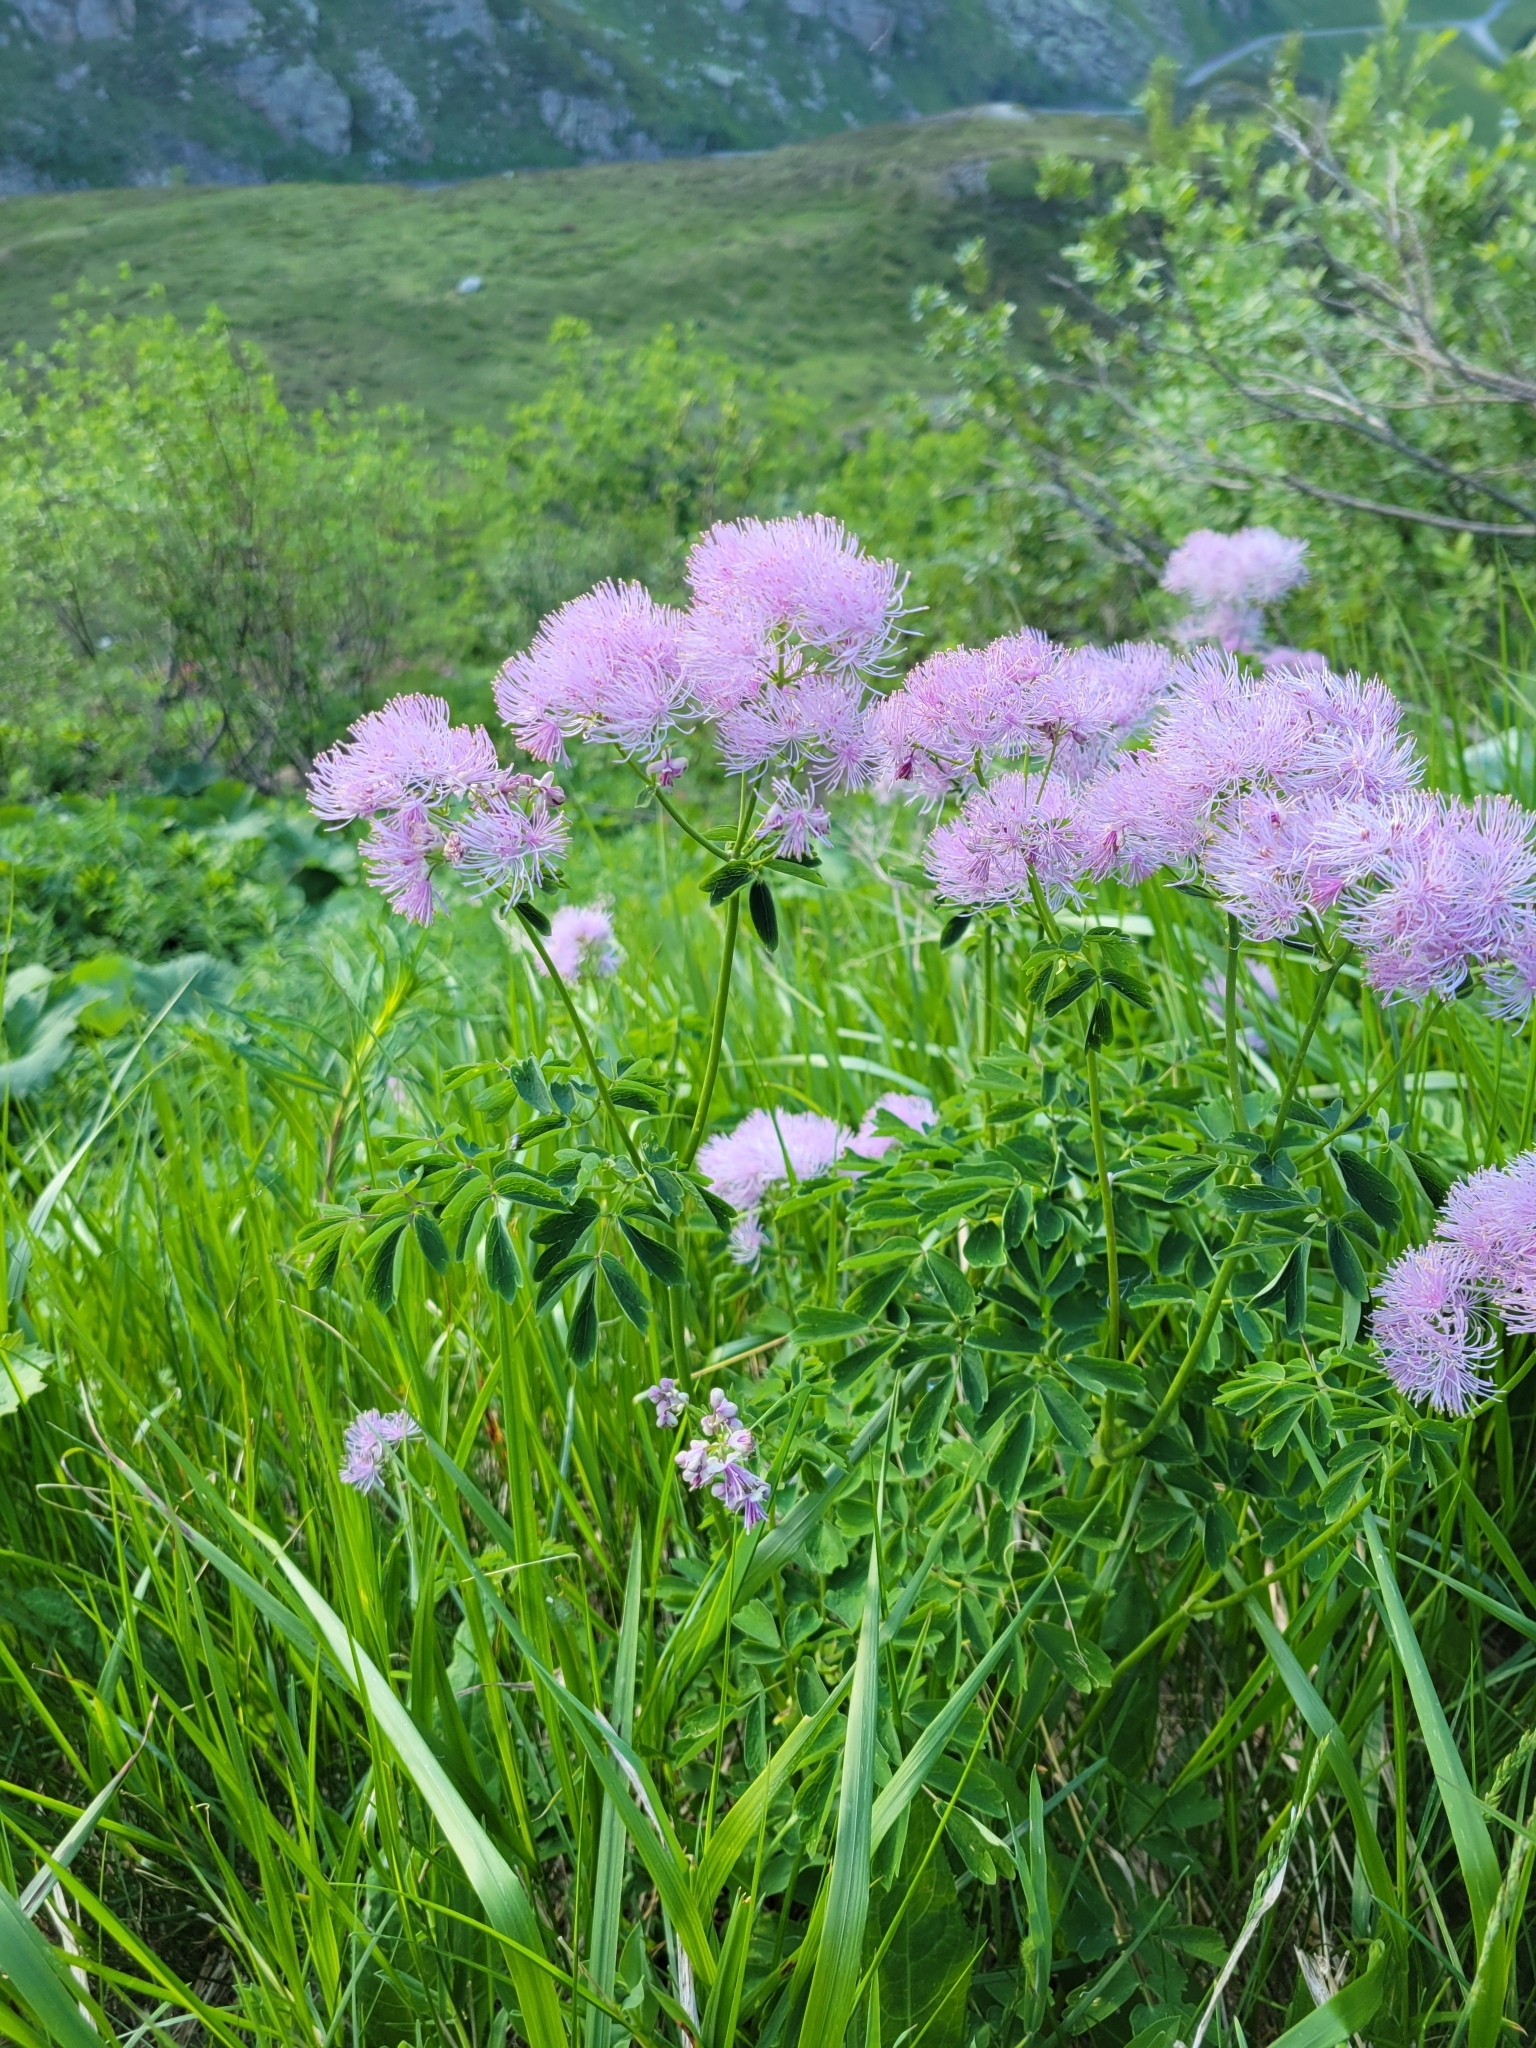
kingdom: Plantae
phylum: Tracheophyta
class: Magnoliopsida
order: Ranunculales
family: Ranunculaceae
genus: Thalictrum
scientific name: Thalictrum aquilegiifolium
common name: French meadow-rue
